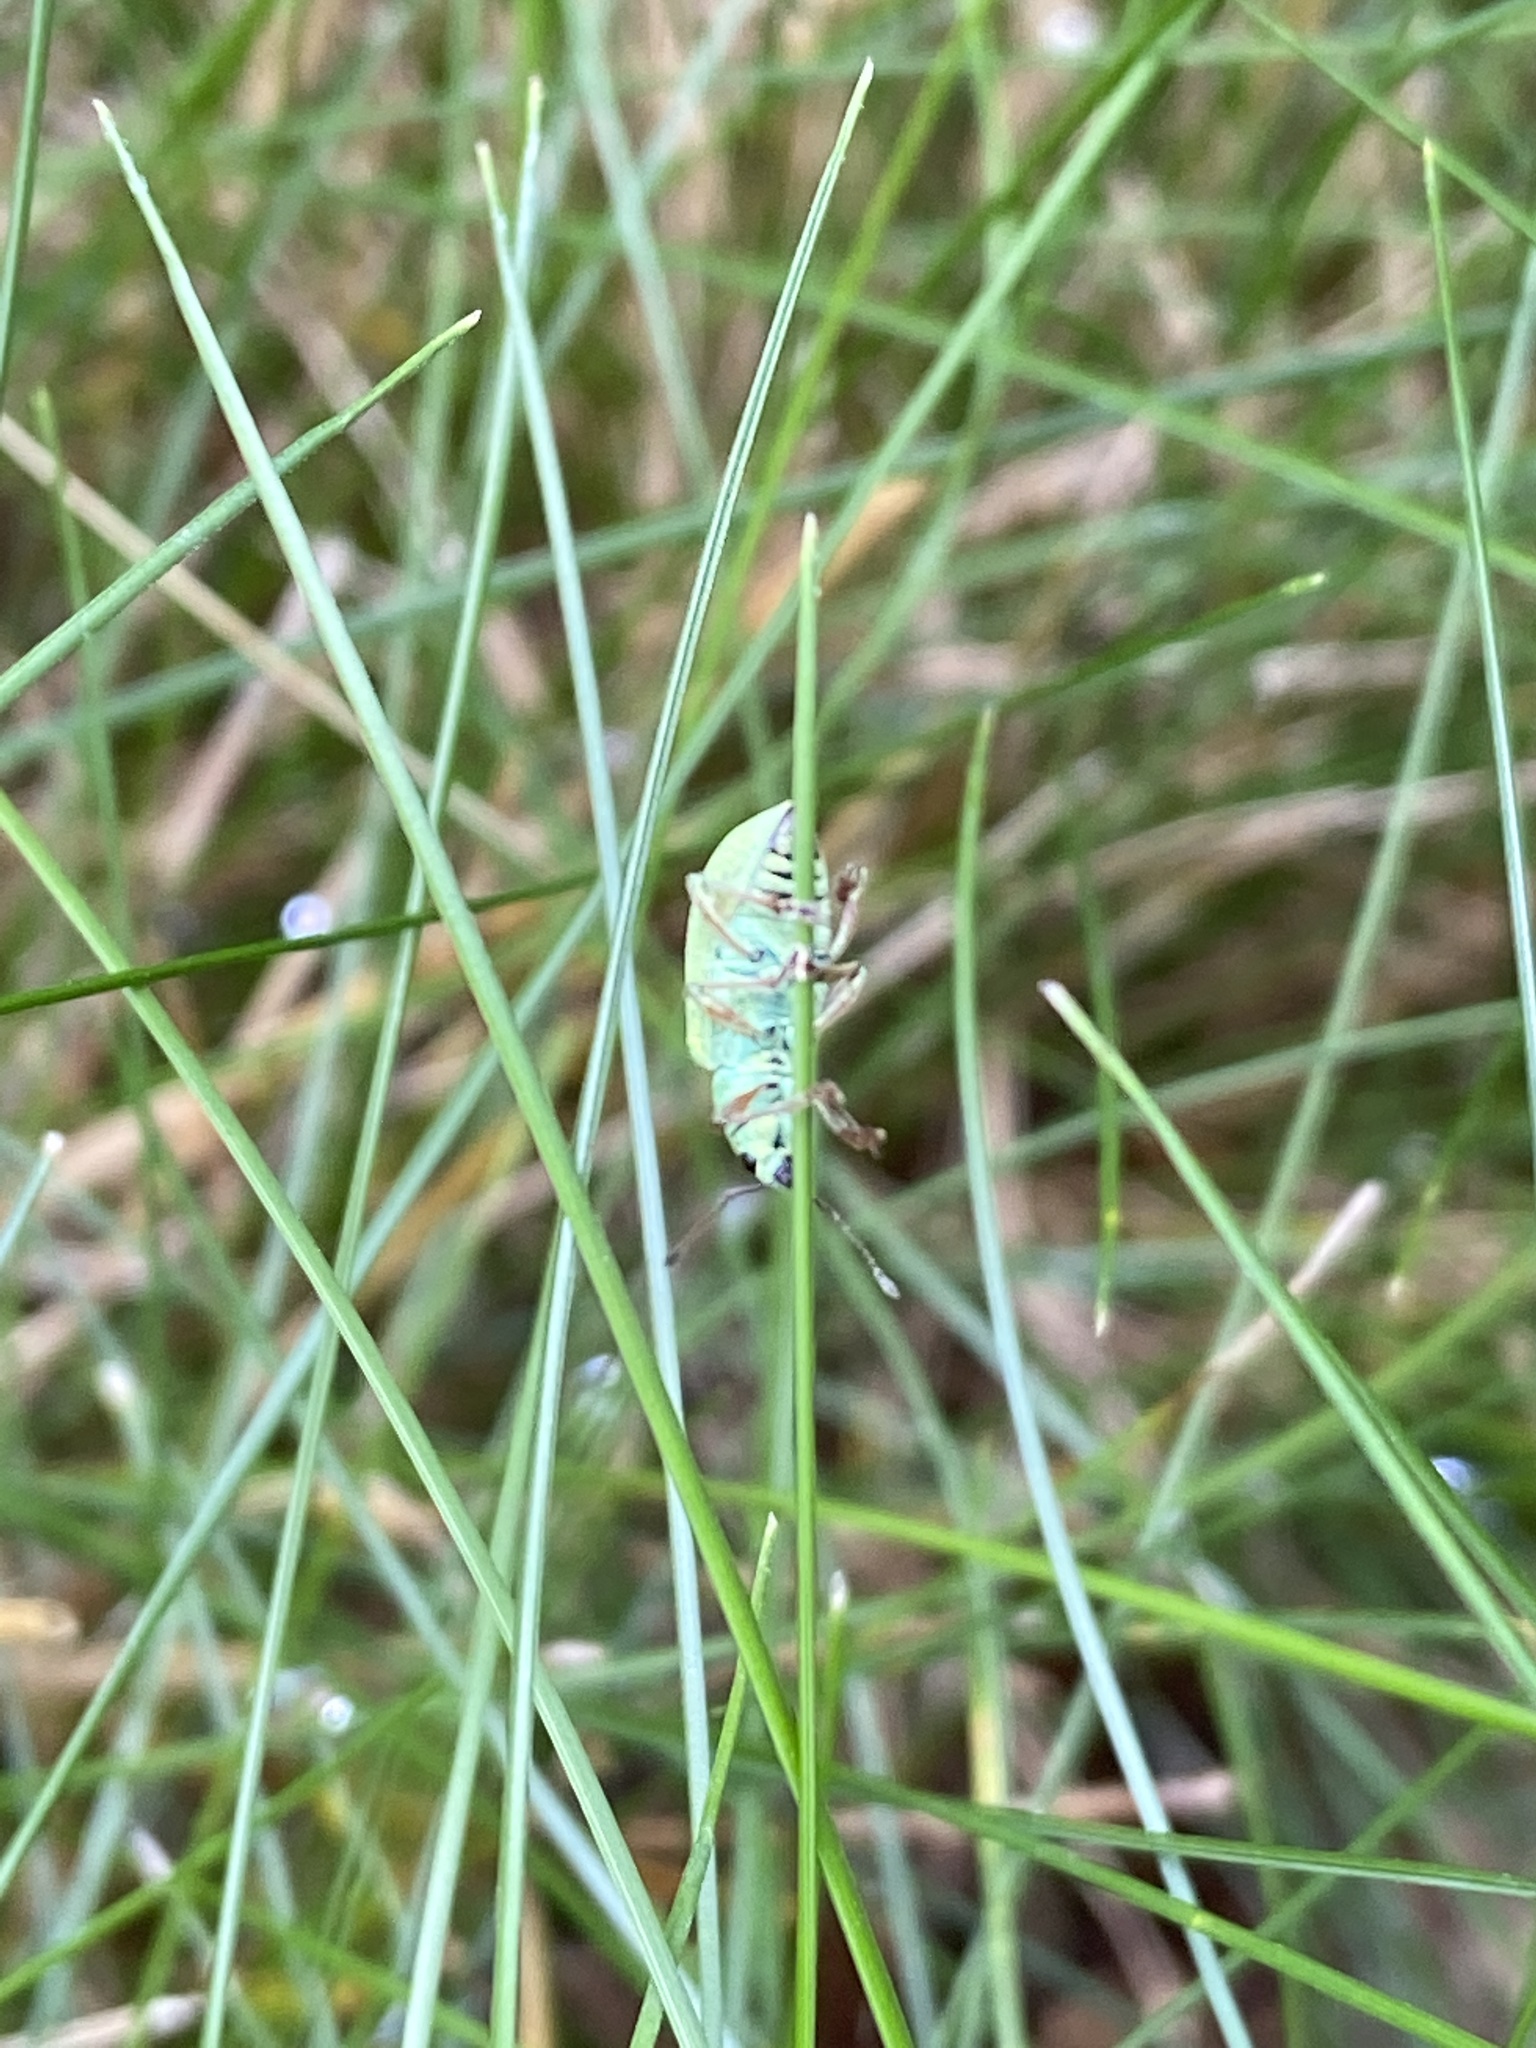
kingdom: Animalia
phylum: Arthropoda
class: Insecta
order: Coleoptera
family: Curculionidae
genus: Polydrusus
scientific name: Polydrusus formosus
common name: Weevil
